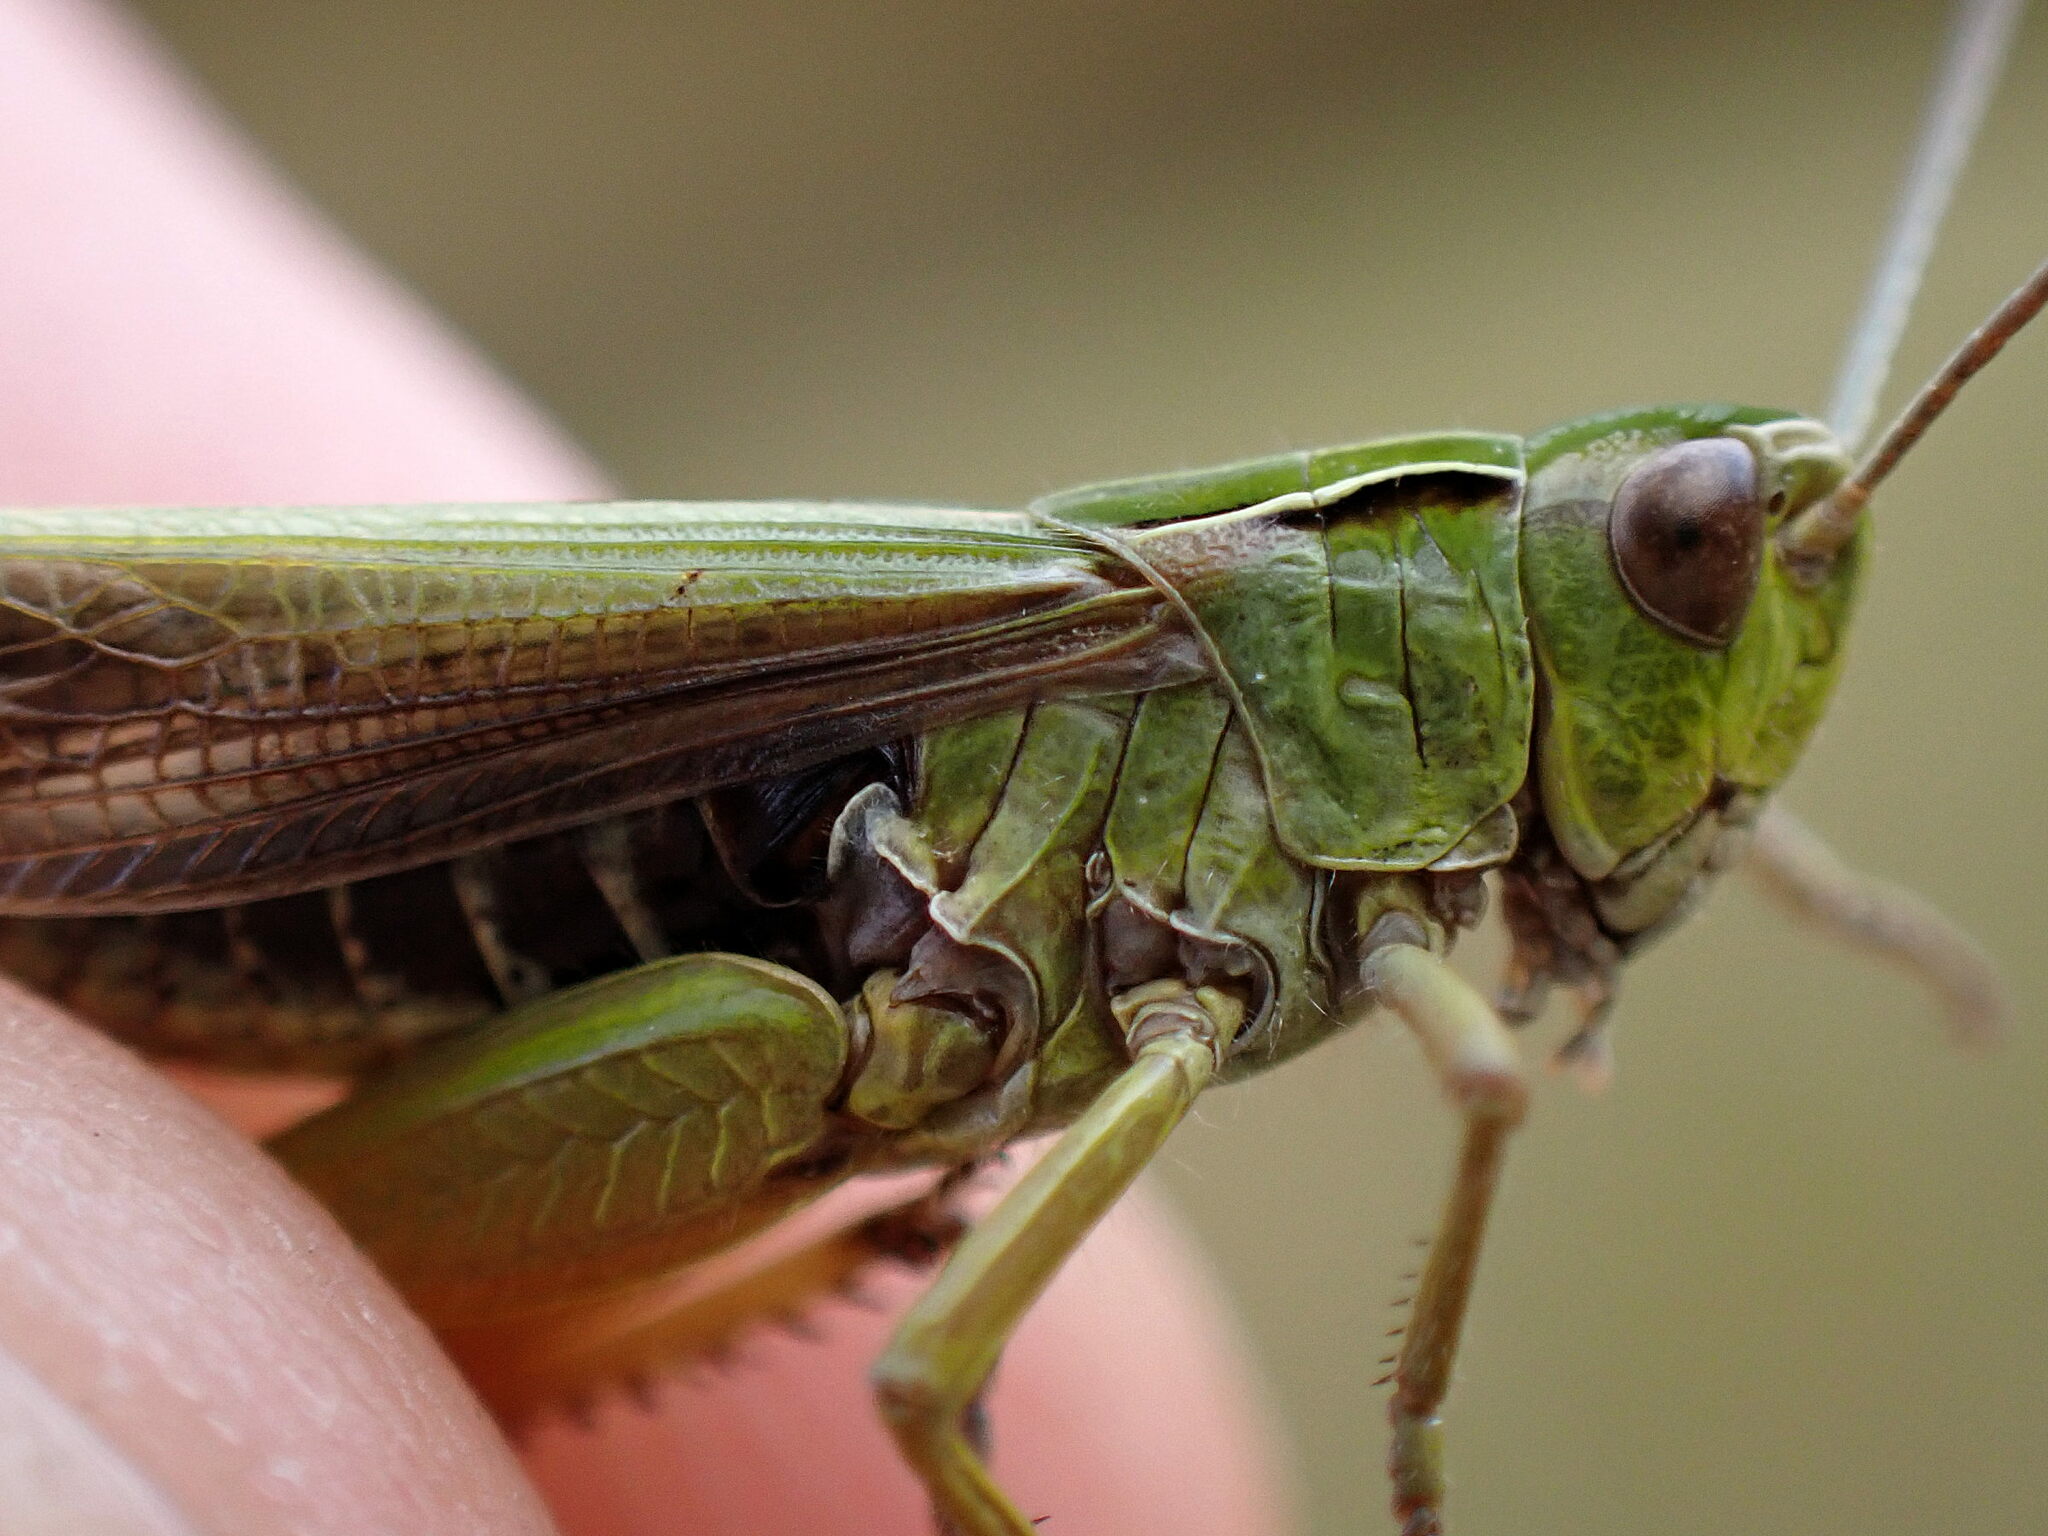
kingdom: Animalia
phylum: Arthropoda
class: Insecta
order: Orthoptera
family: Acrididae
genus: Omocestus
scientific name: Omocestus viridulus
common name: Common green grasshopper
